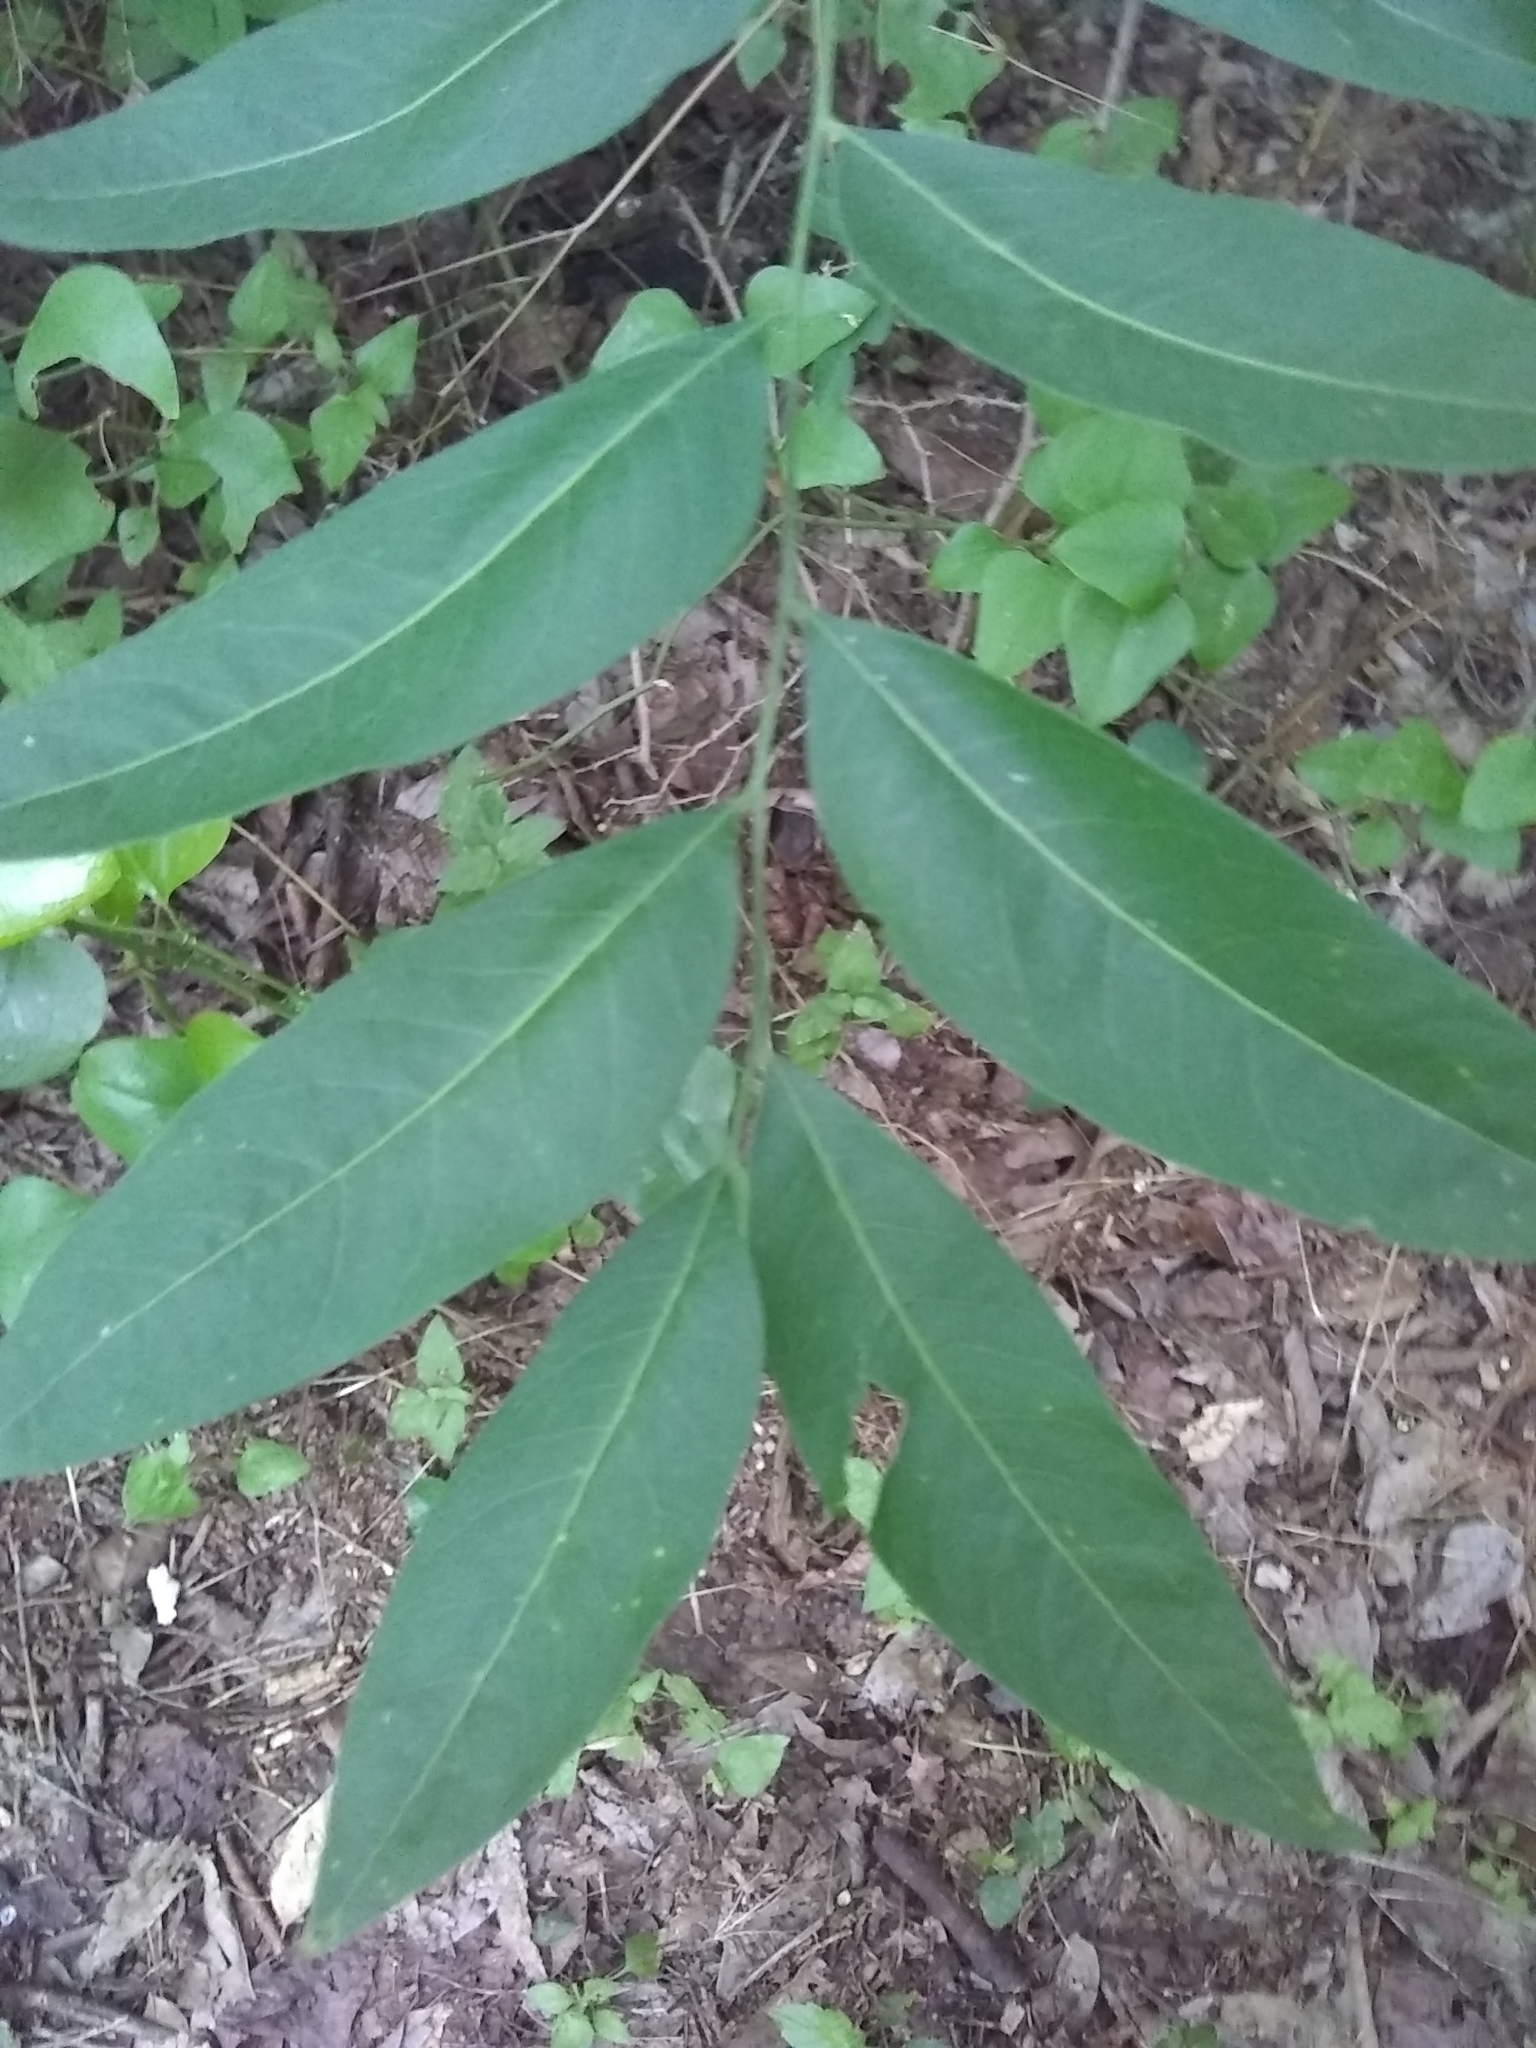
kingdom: Plantae
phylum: Tracheophyta
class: Magnoliopsida
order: Sapindales
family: Sapindaceae
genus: Sapindus
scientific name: Sapindus drummondii
